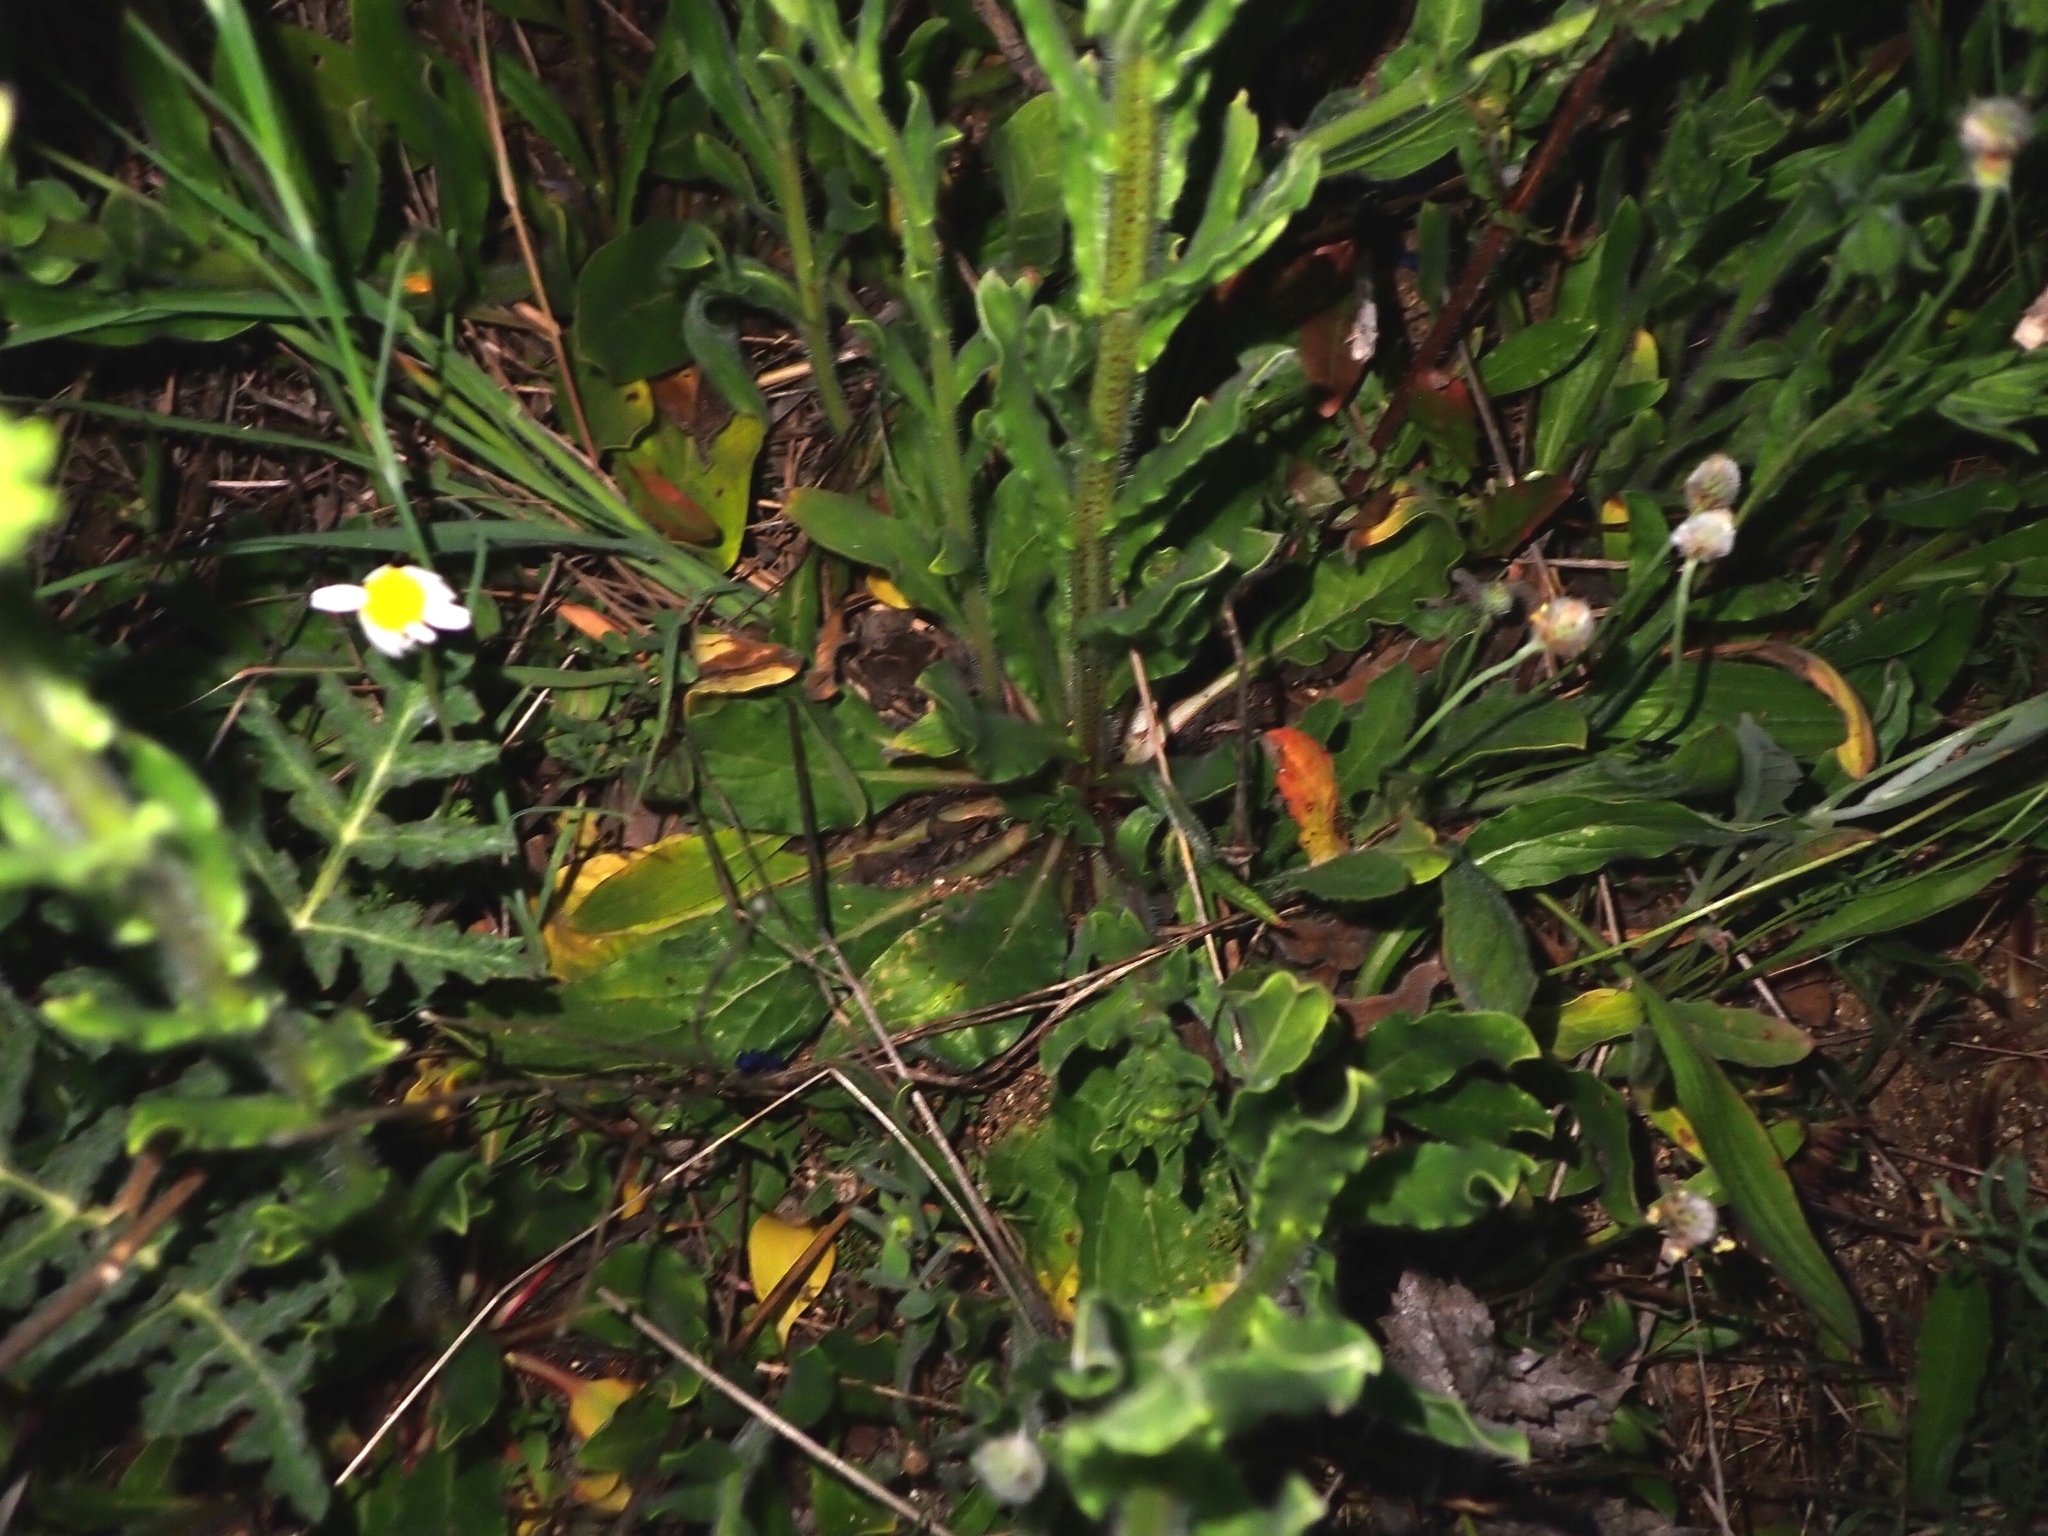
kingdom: Plantae
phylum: Tracheophyta
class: Magnoliopsida
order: Boraginales
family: Boraginaceae
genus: Echium
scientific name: Echium plantagineum
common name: Purple viper's-bugloss
